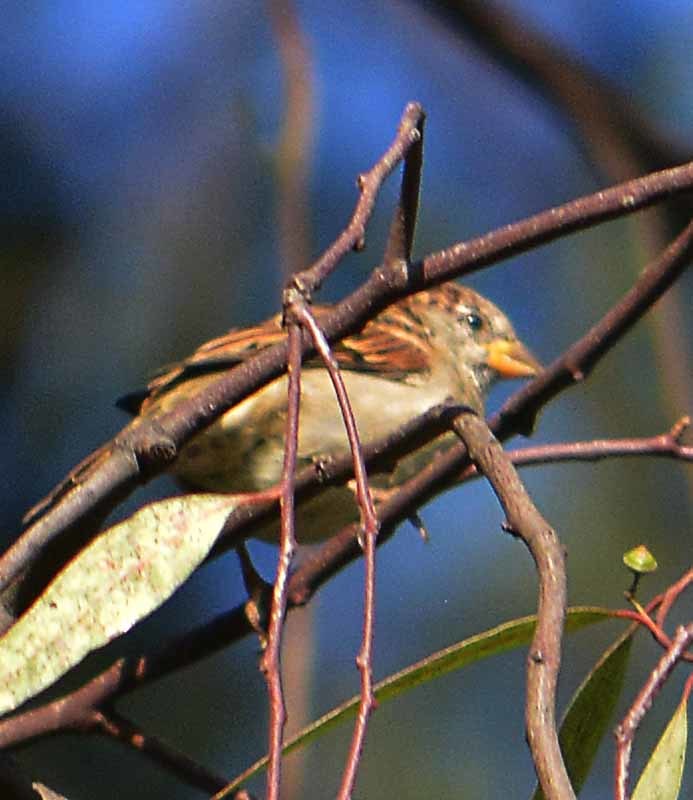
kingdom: Animalia
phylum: Chordata
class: Aves
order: Passeriformes
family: Passeridae
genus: Passer
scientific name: Passer domesticus
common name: House sparrow
